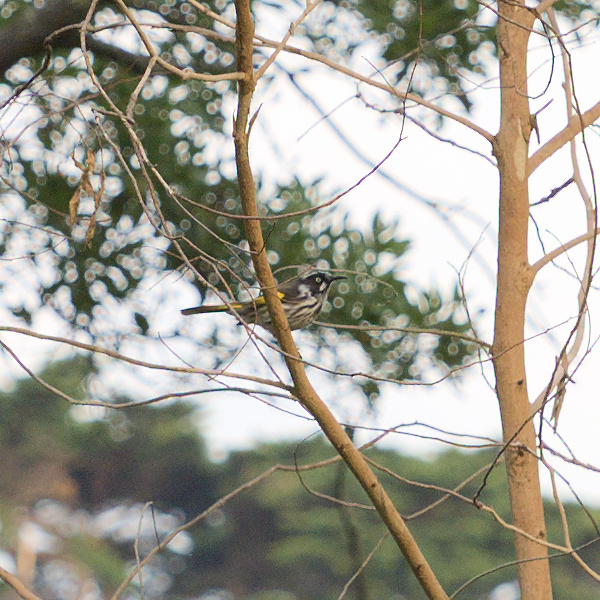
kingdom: Animalia
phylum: Chordata
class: Aves
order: Passeriformes
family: Meliphagidae
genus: Phylidonyris
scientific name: Phylidonyris novaehollandiae
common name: New holland honeyeater
